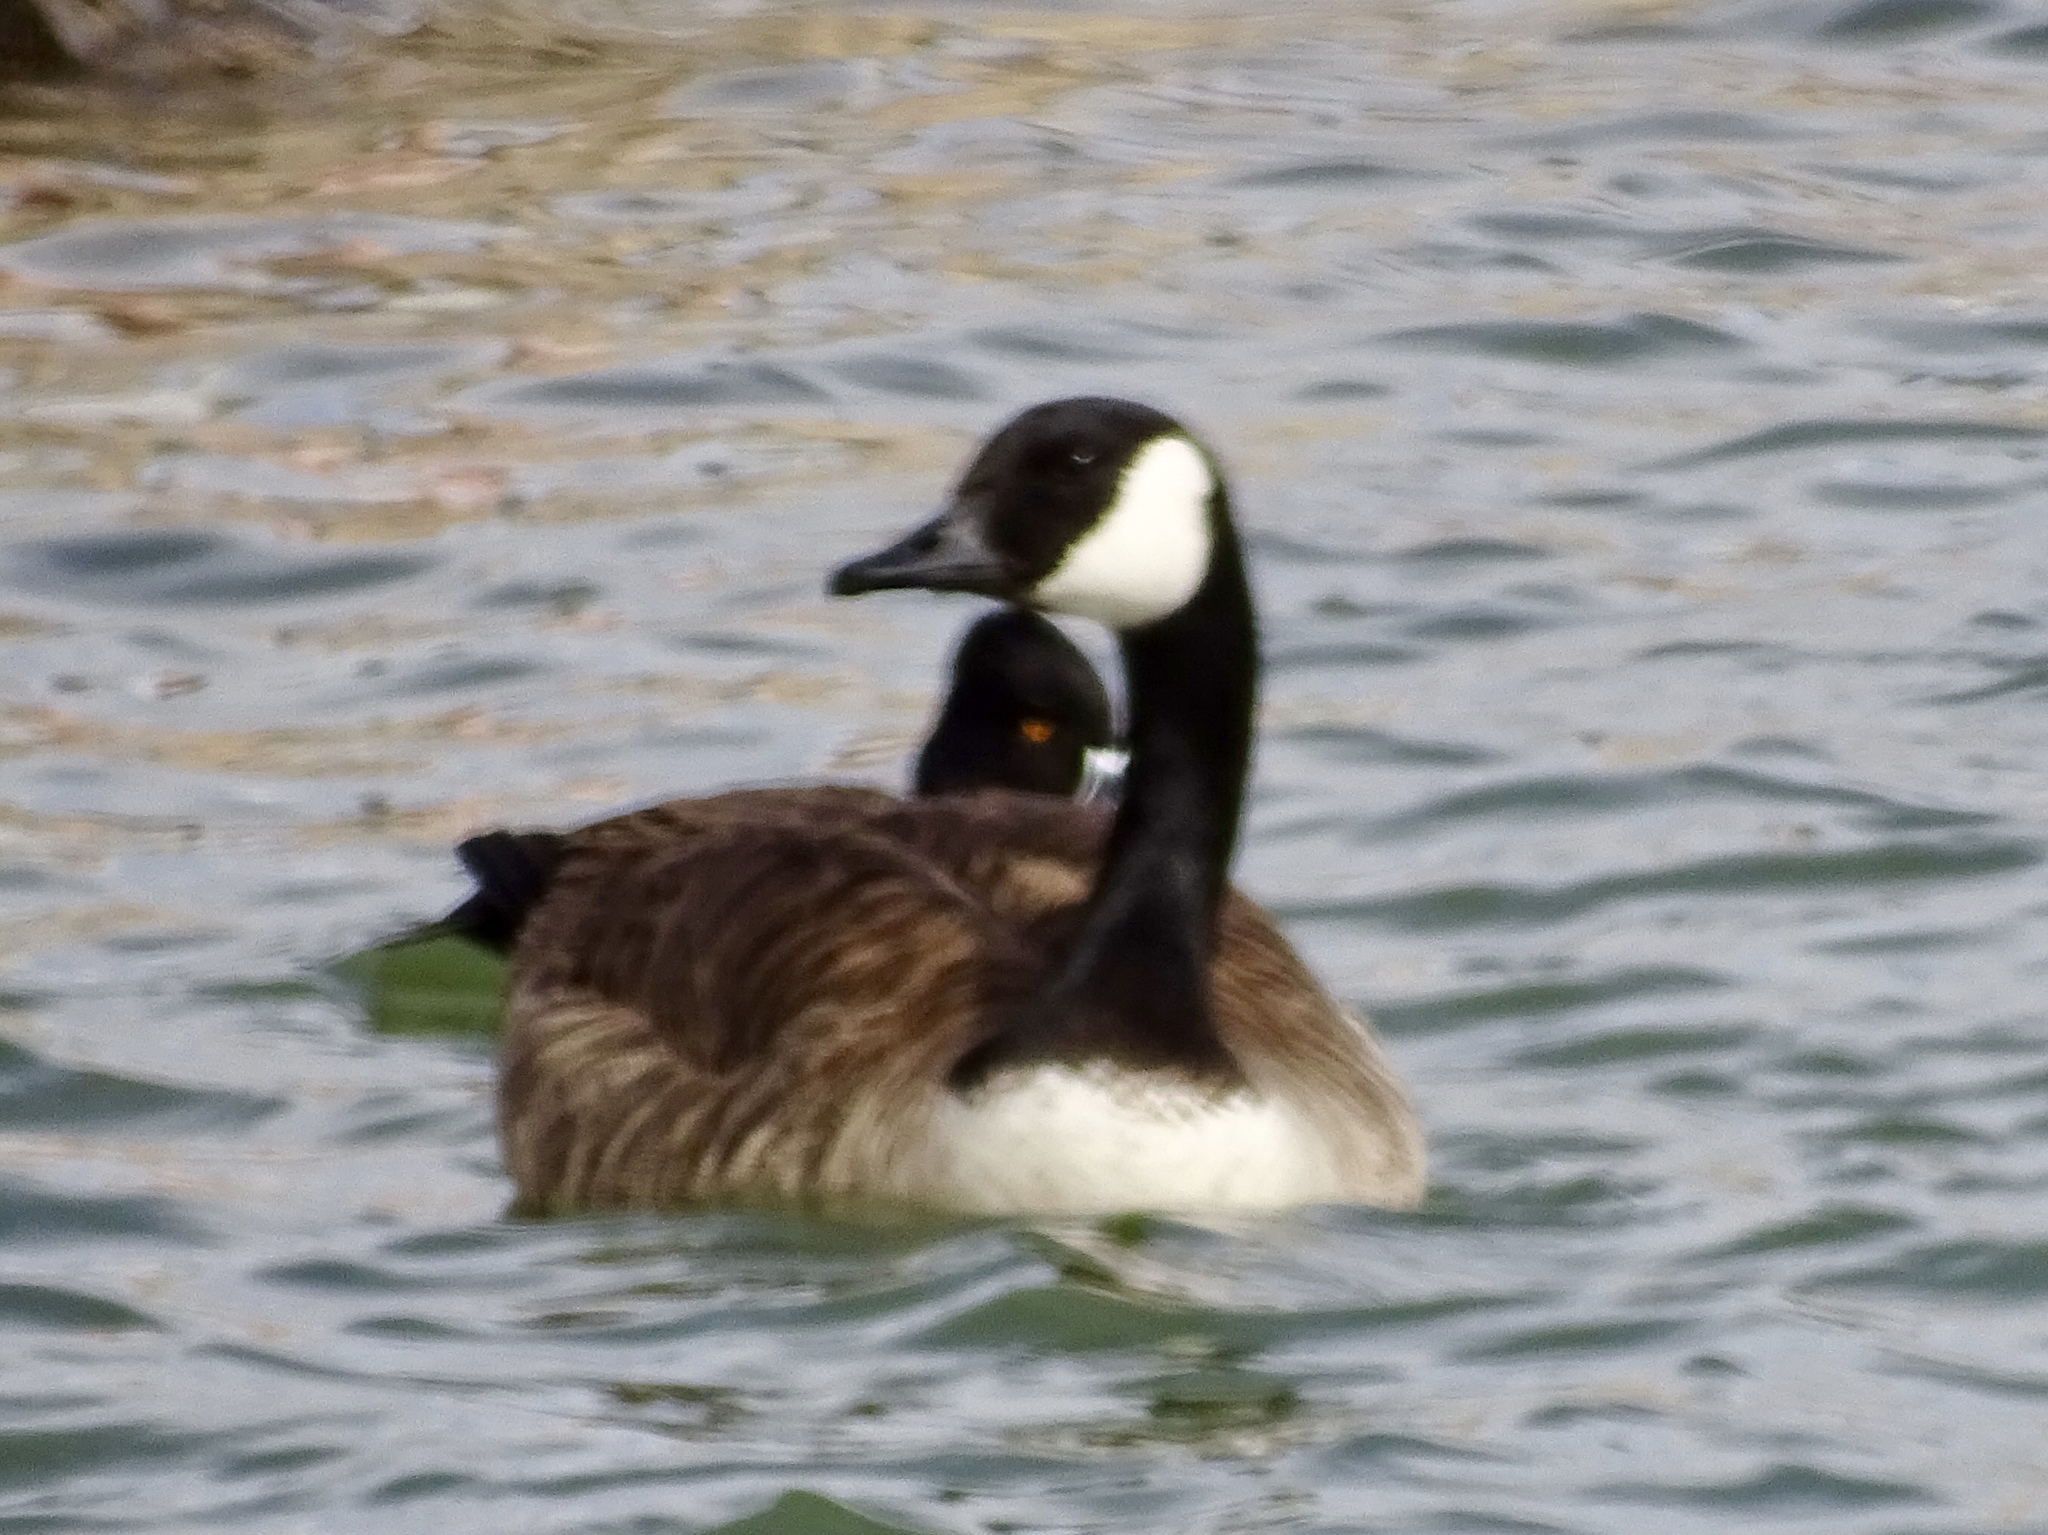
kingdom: Animalia
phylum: Chordata
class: Aves
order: Anseriformes
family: Anatidae
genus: Branta
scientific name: Branta canadensis
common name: Canada goose
